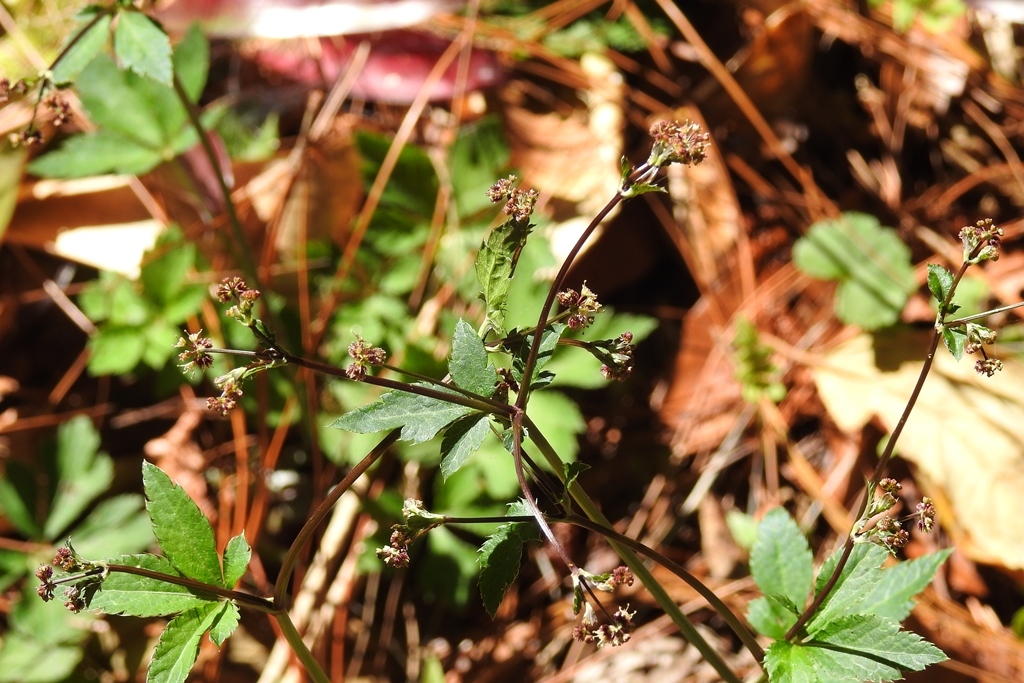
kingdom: Plantae
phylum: Tracheophyta
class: Magnoliopsida
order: Apiales
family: Apiaceae
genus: Sanicula
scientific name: Sanicula liberta
